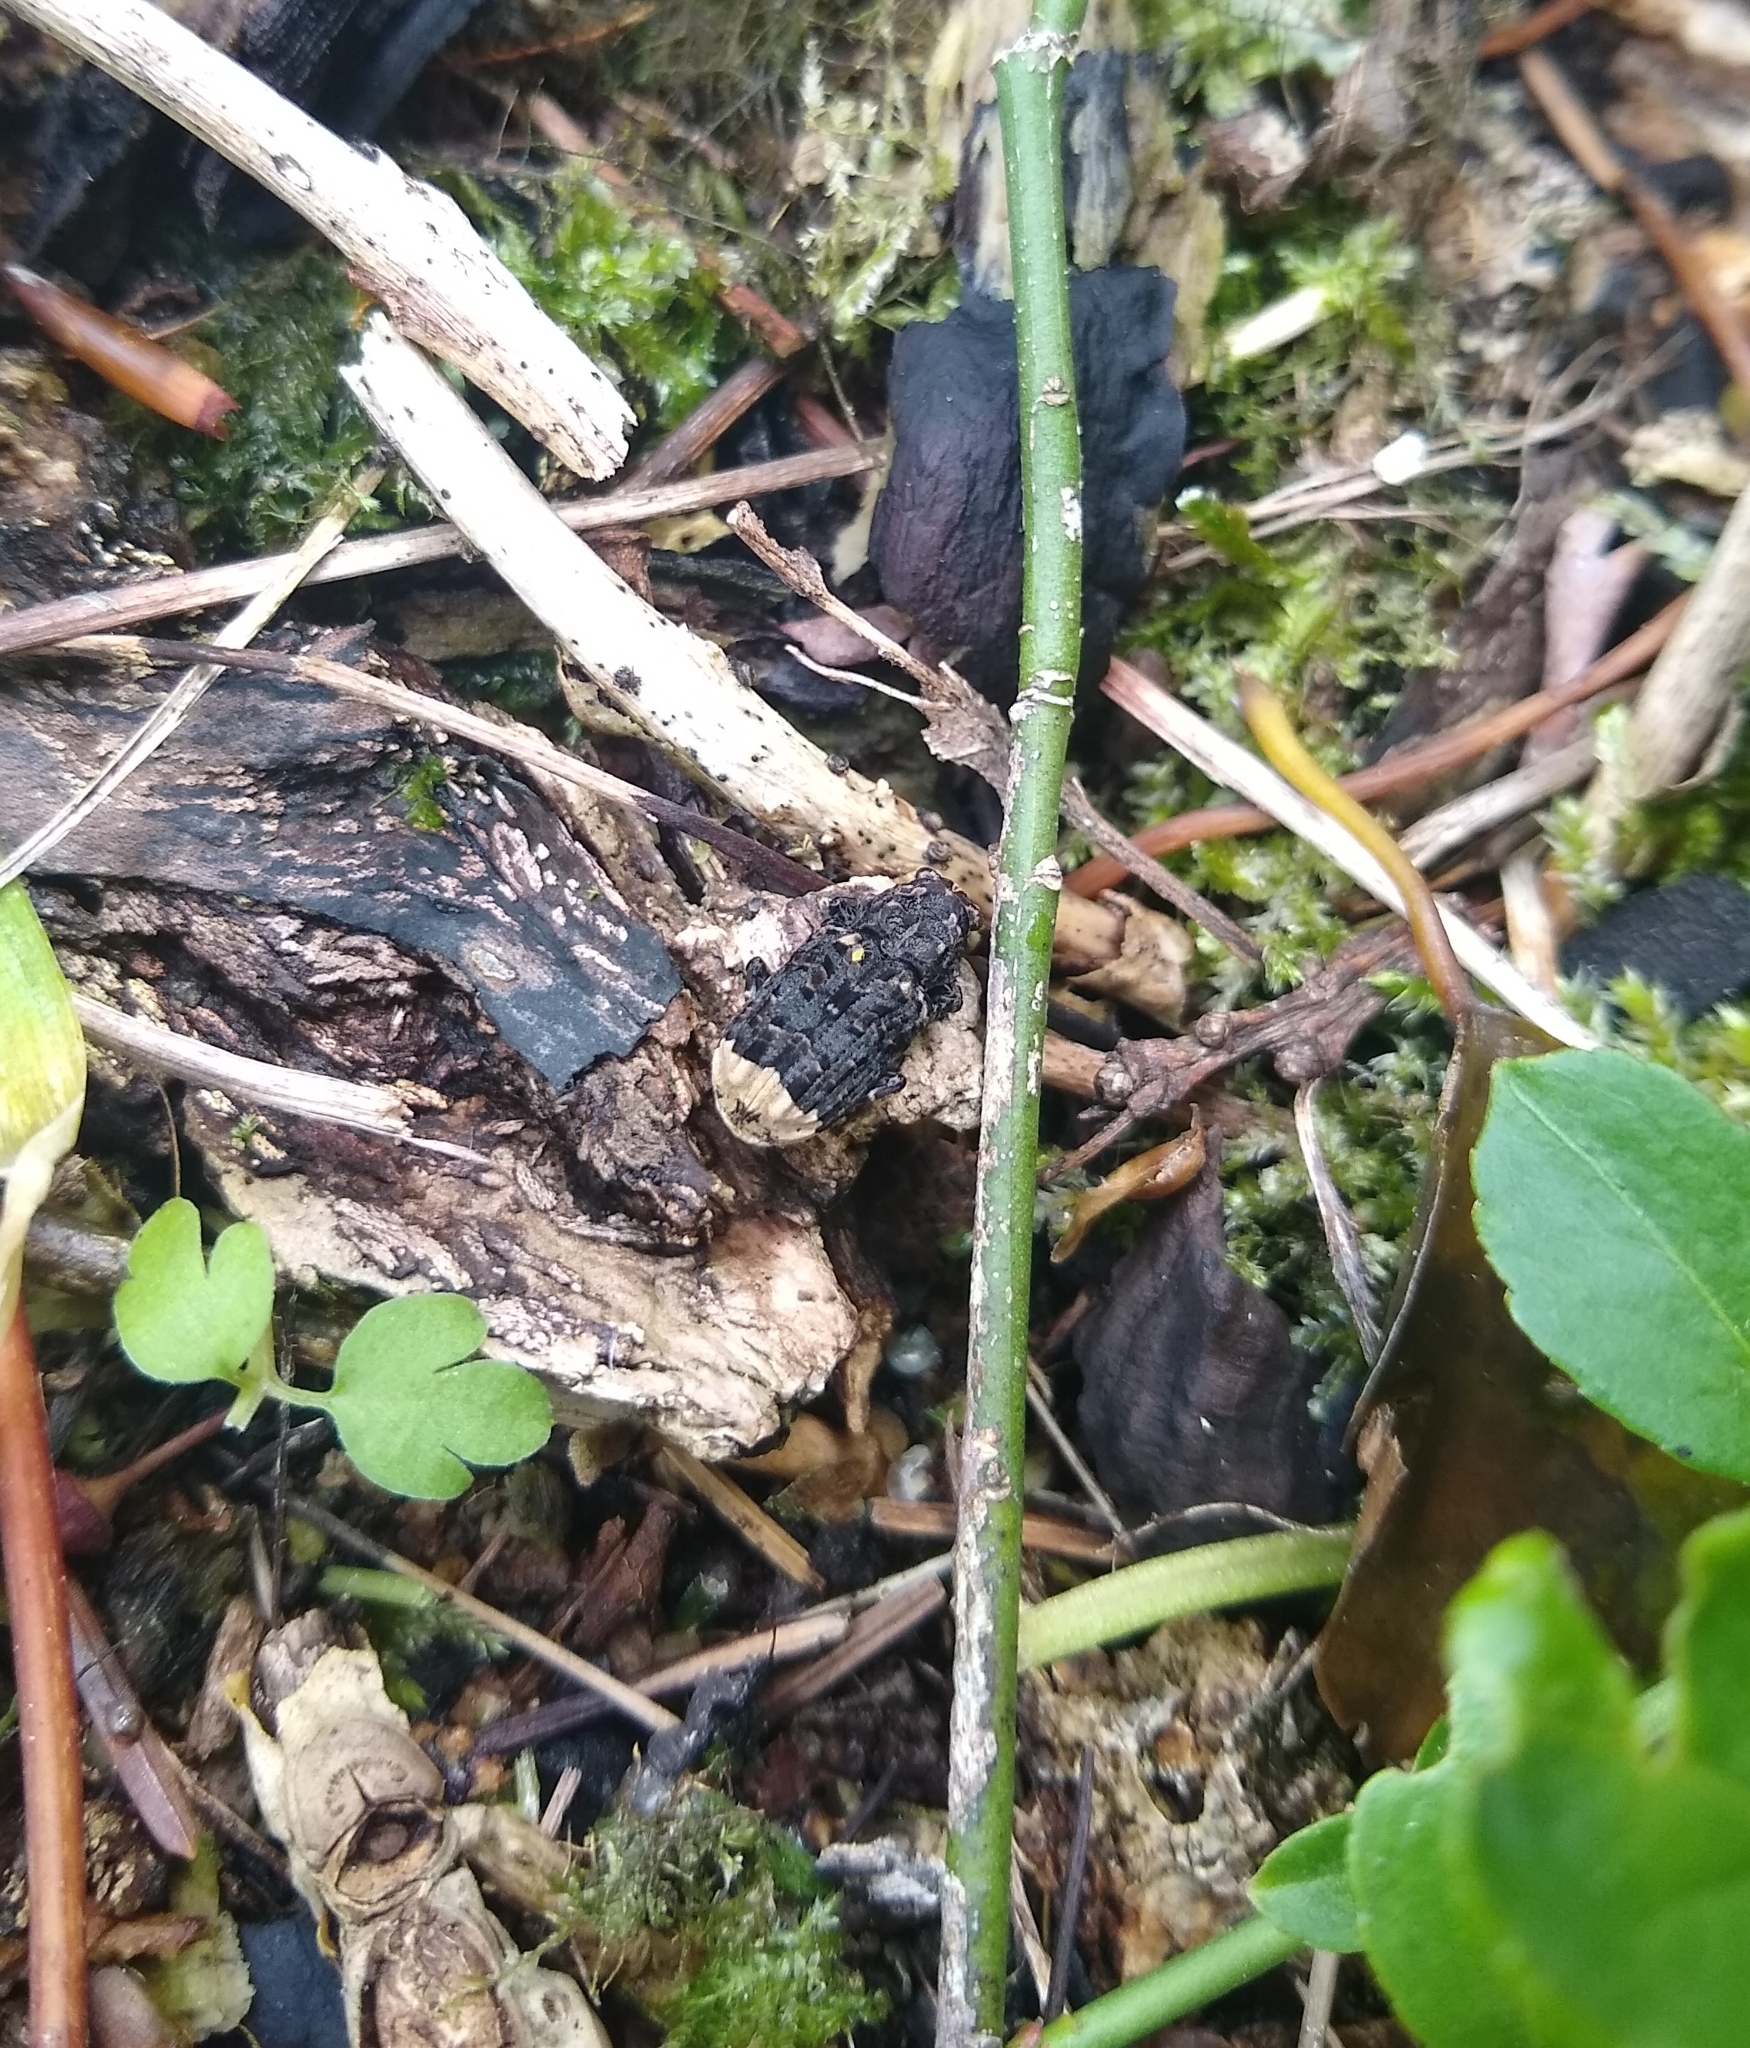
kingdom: Animalia
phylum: Arthropoda
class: Insecta
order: Coleoptera
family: Anthribidae
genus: Platyrhinus
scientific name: Platyrhinus resinosus
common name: Cramp-ball fungus weevil
